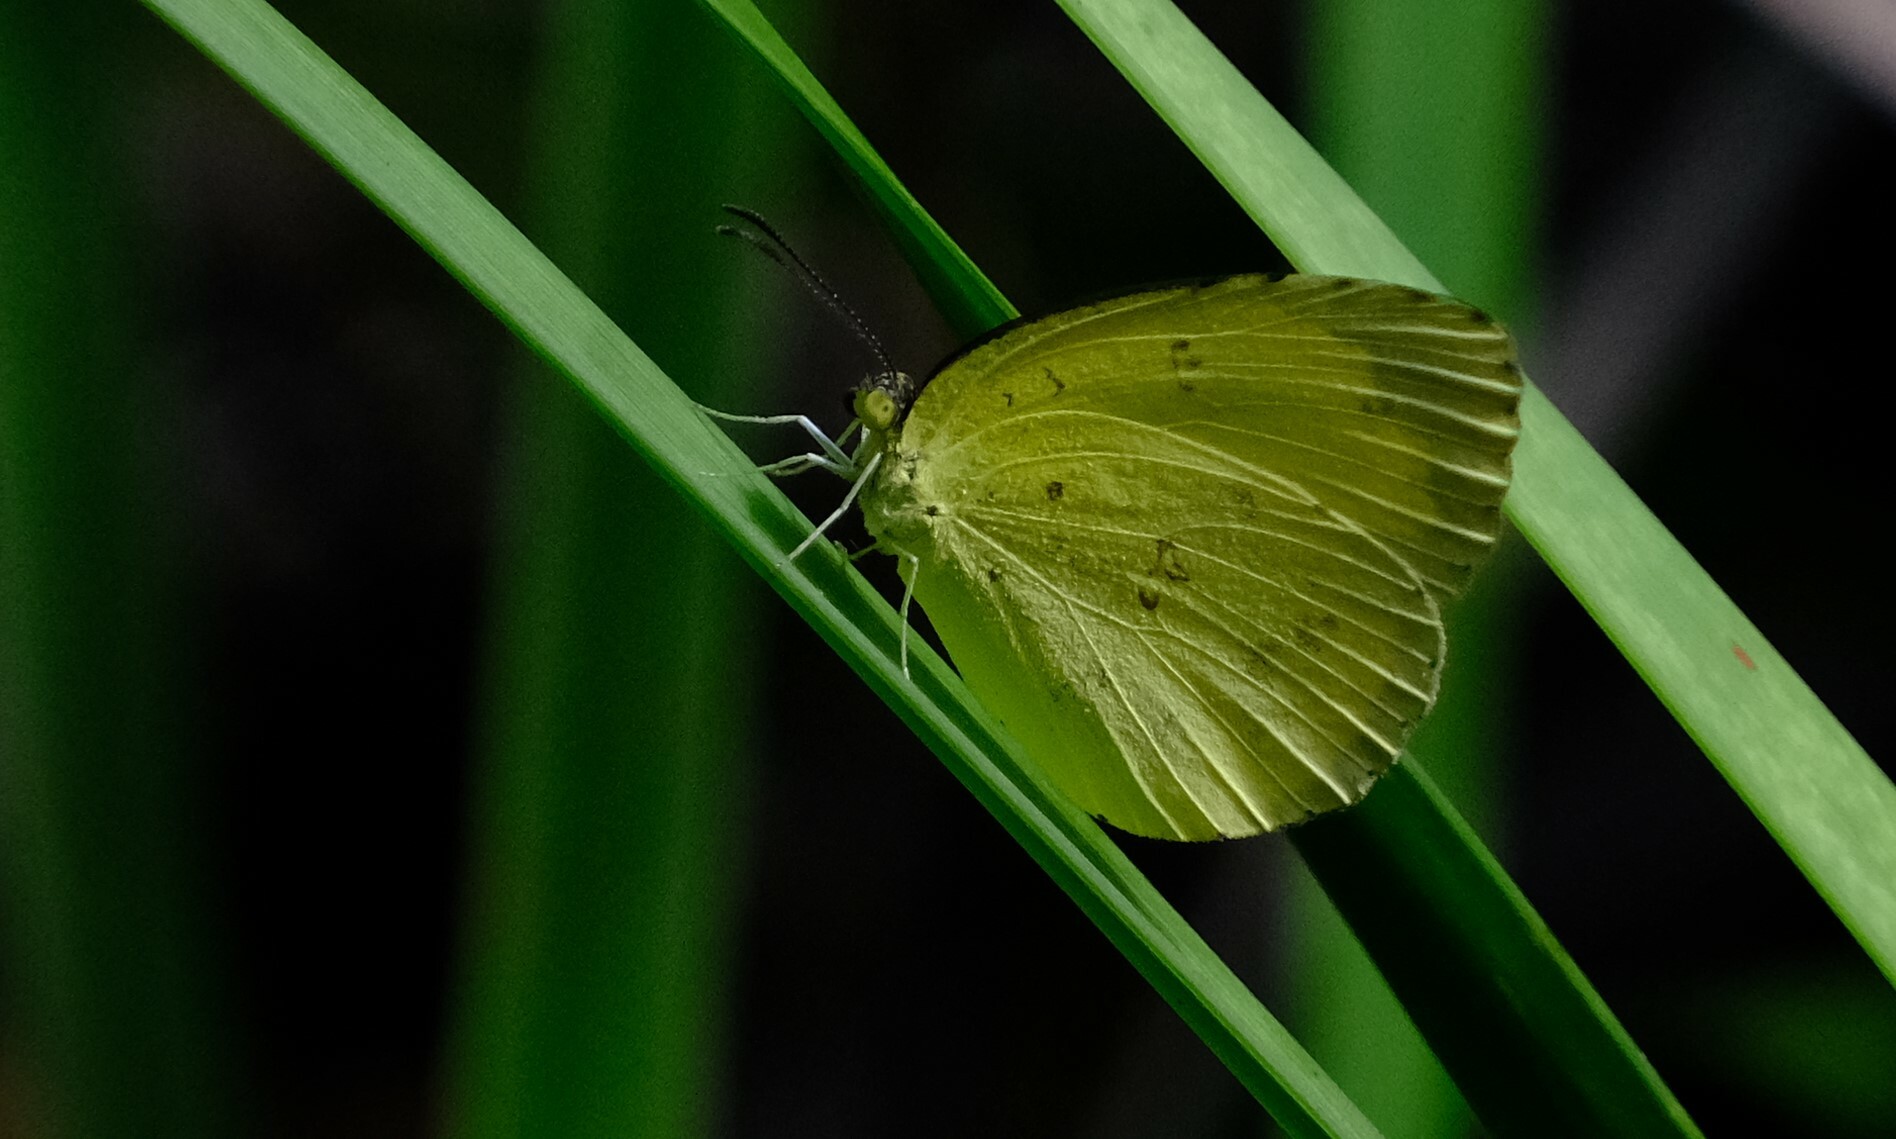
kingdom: Animalia
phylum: Arthropoda
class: Insecta
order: Lepidoptera
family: Pieridae
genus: Eurema
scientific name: Eurema hecabe
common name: Pale grass yellow
